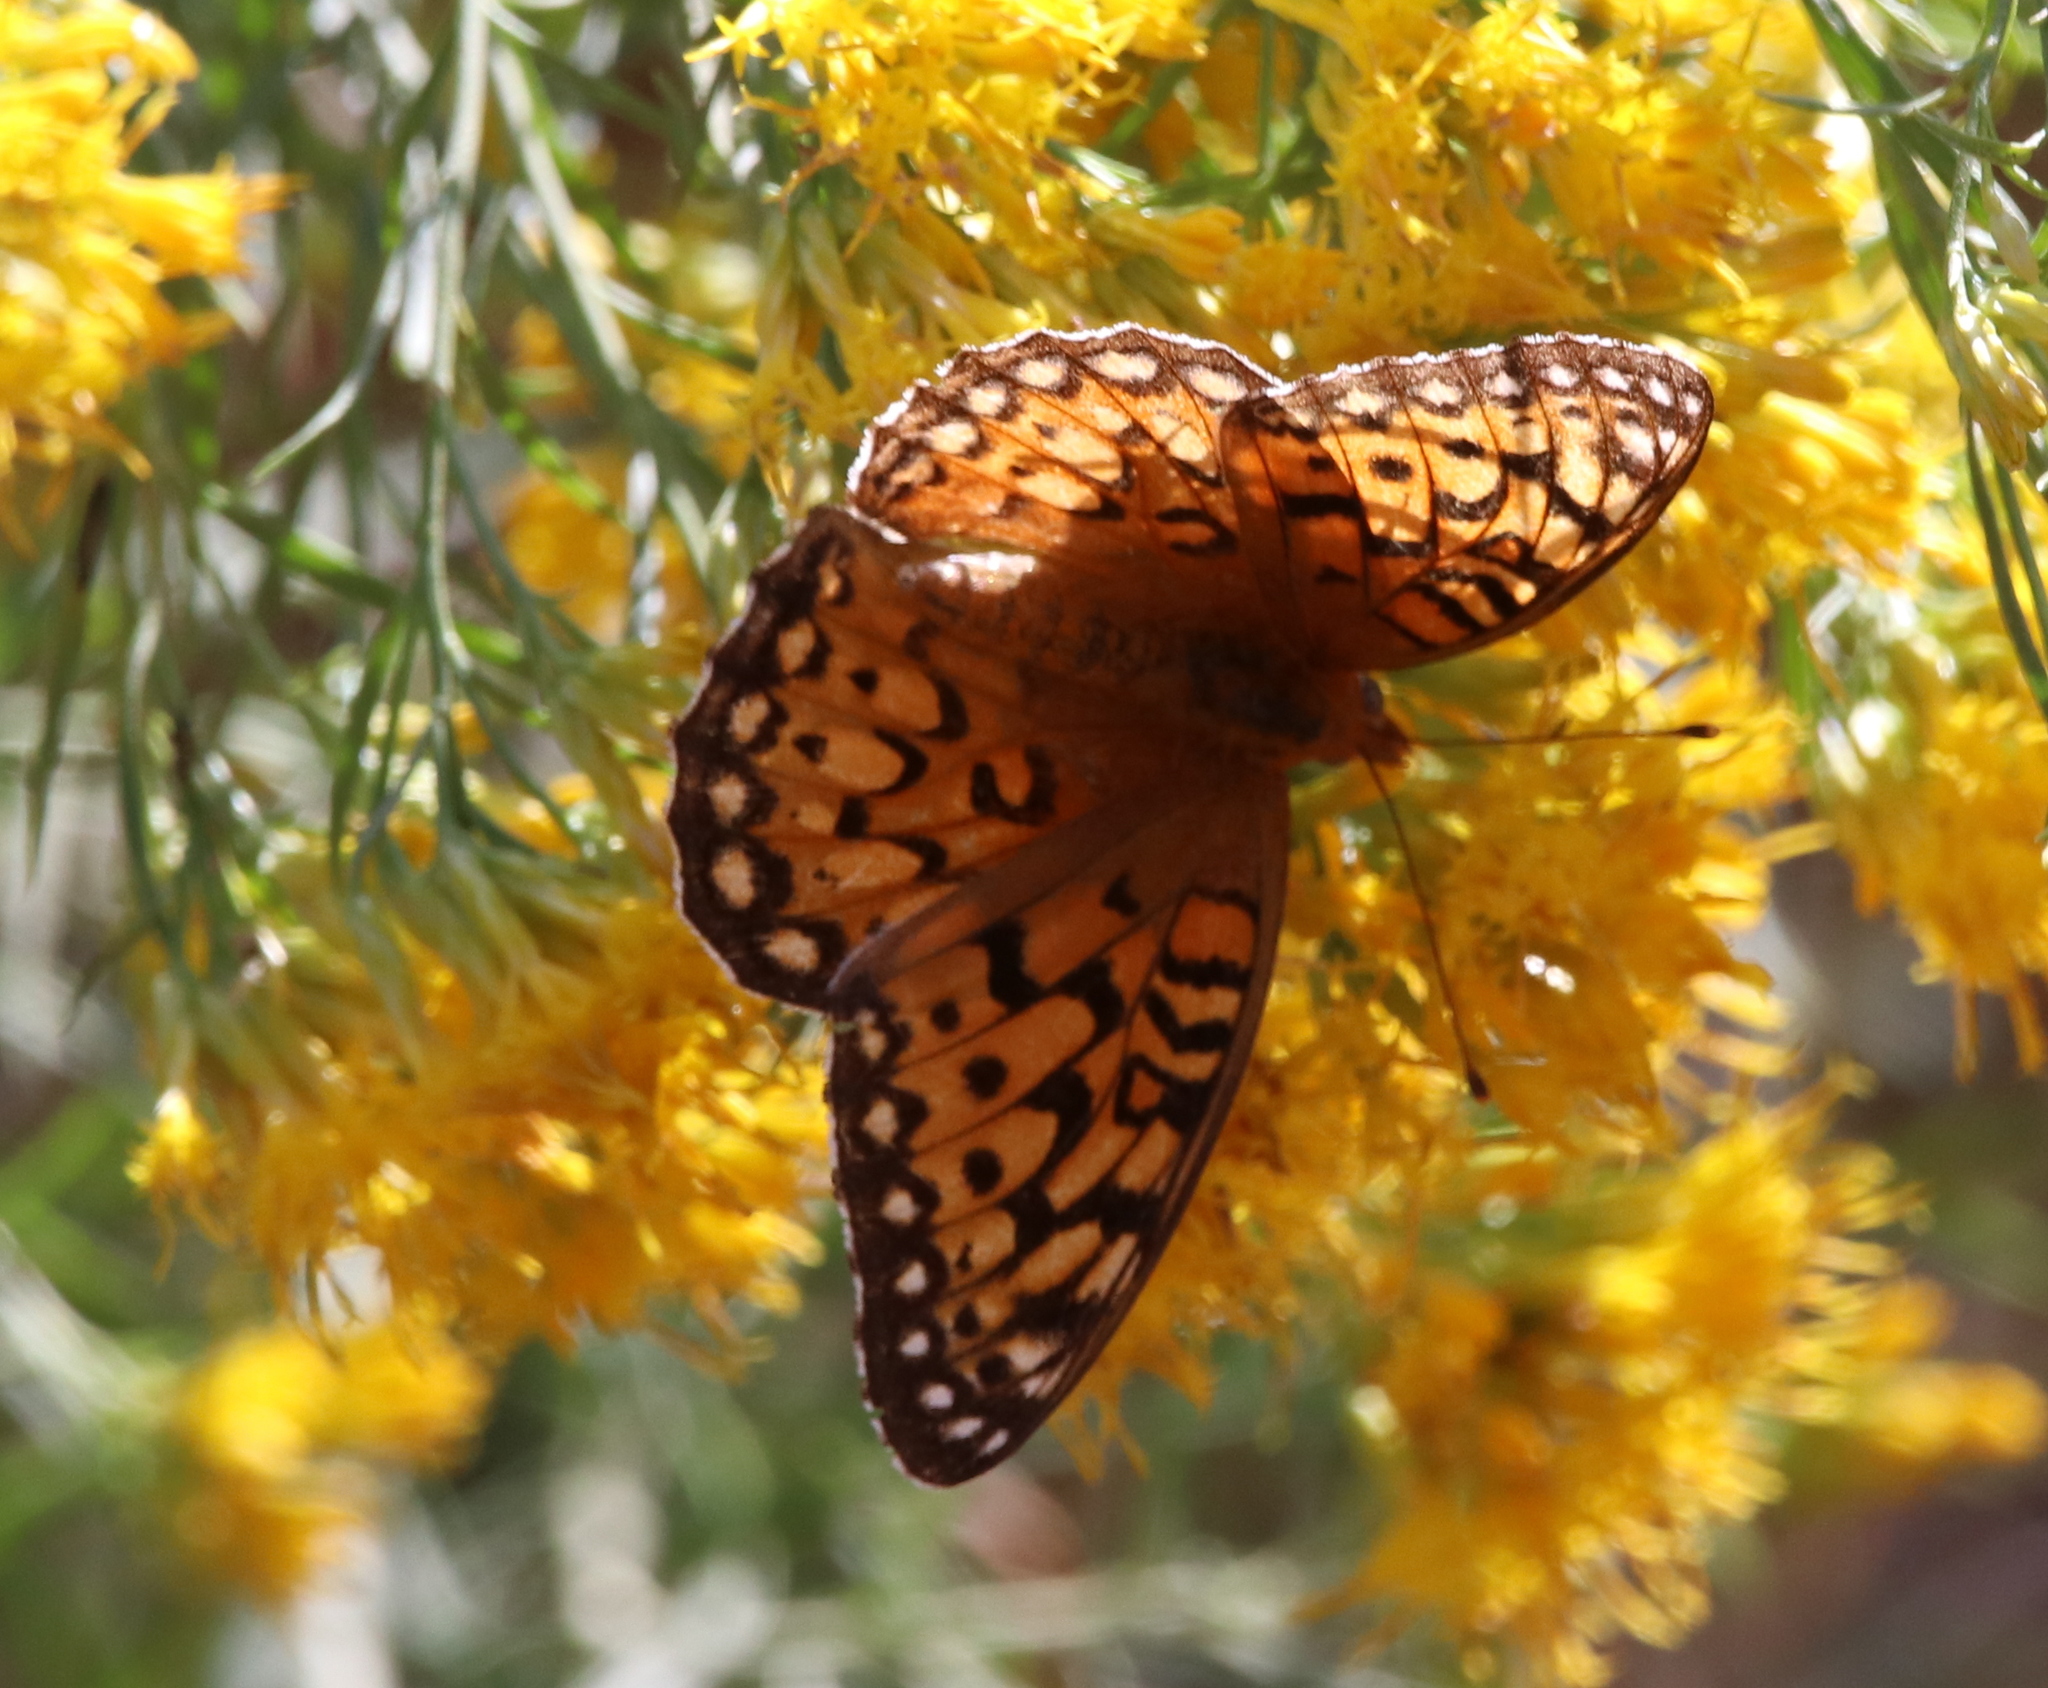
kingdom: Animalia
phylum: Arthropoda
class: Insecta
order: Lepidoptera
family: Nymphalidae
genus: Speyeria
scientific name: Speyeria edwardsii
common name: Edwards' fritillary
